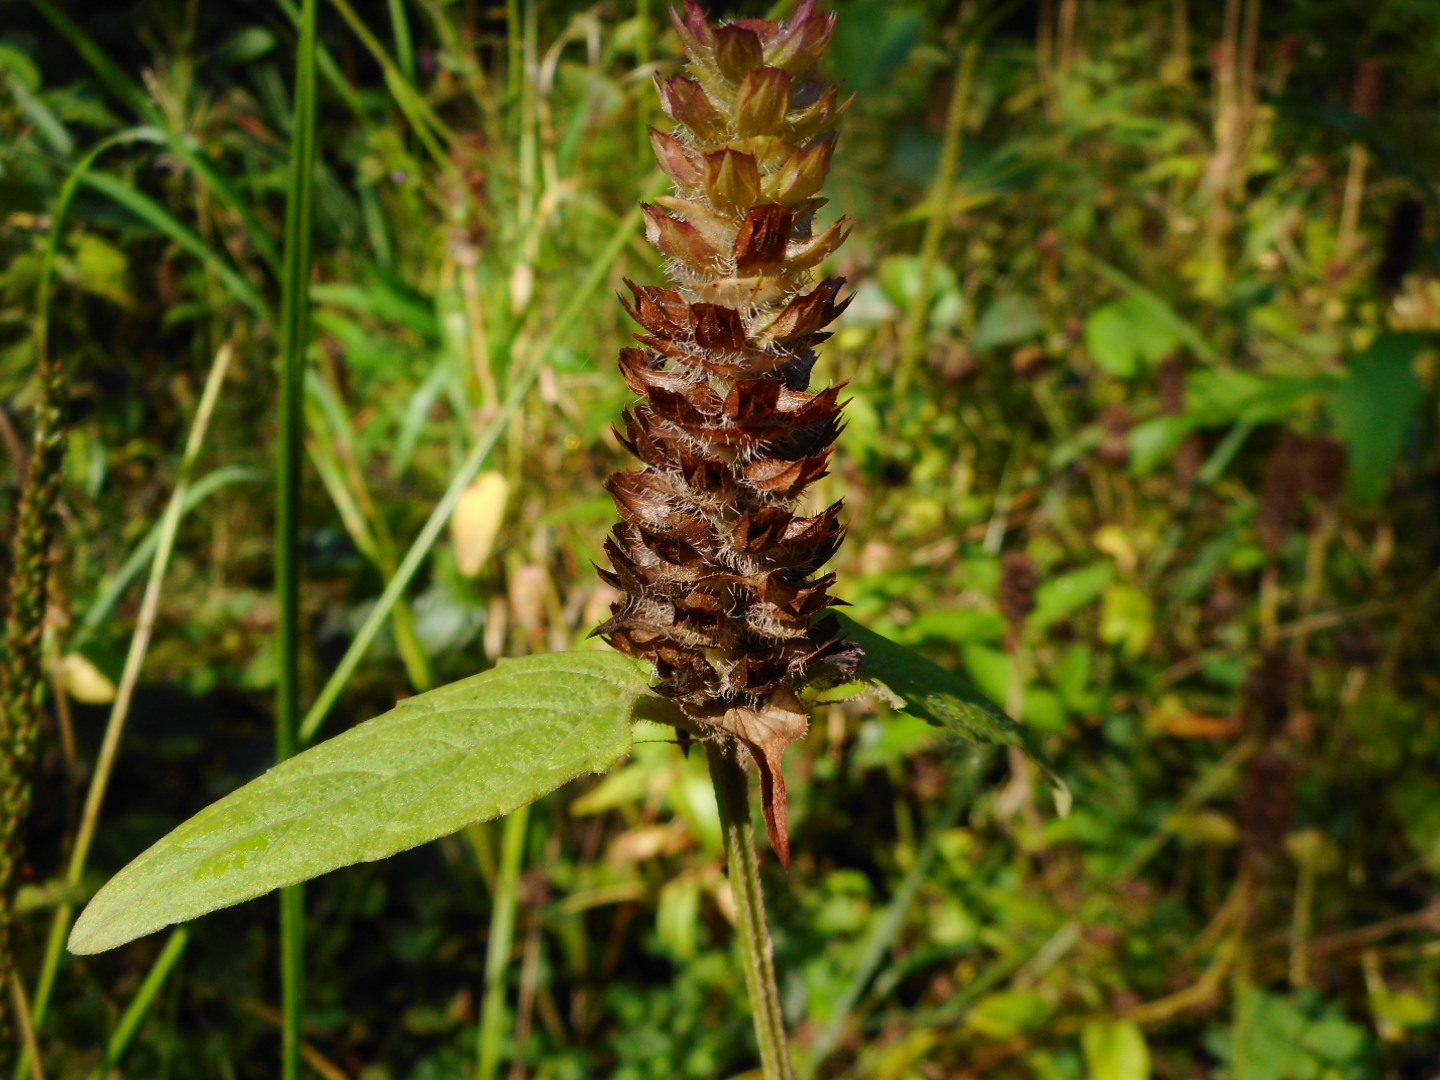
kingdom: Plantae
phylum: Tracheophyta
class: Magnoliopsida
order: Lamiales
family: Lamiaceae
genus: Prunella
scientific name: Prunella vulgaris
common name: Heal-all
